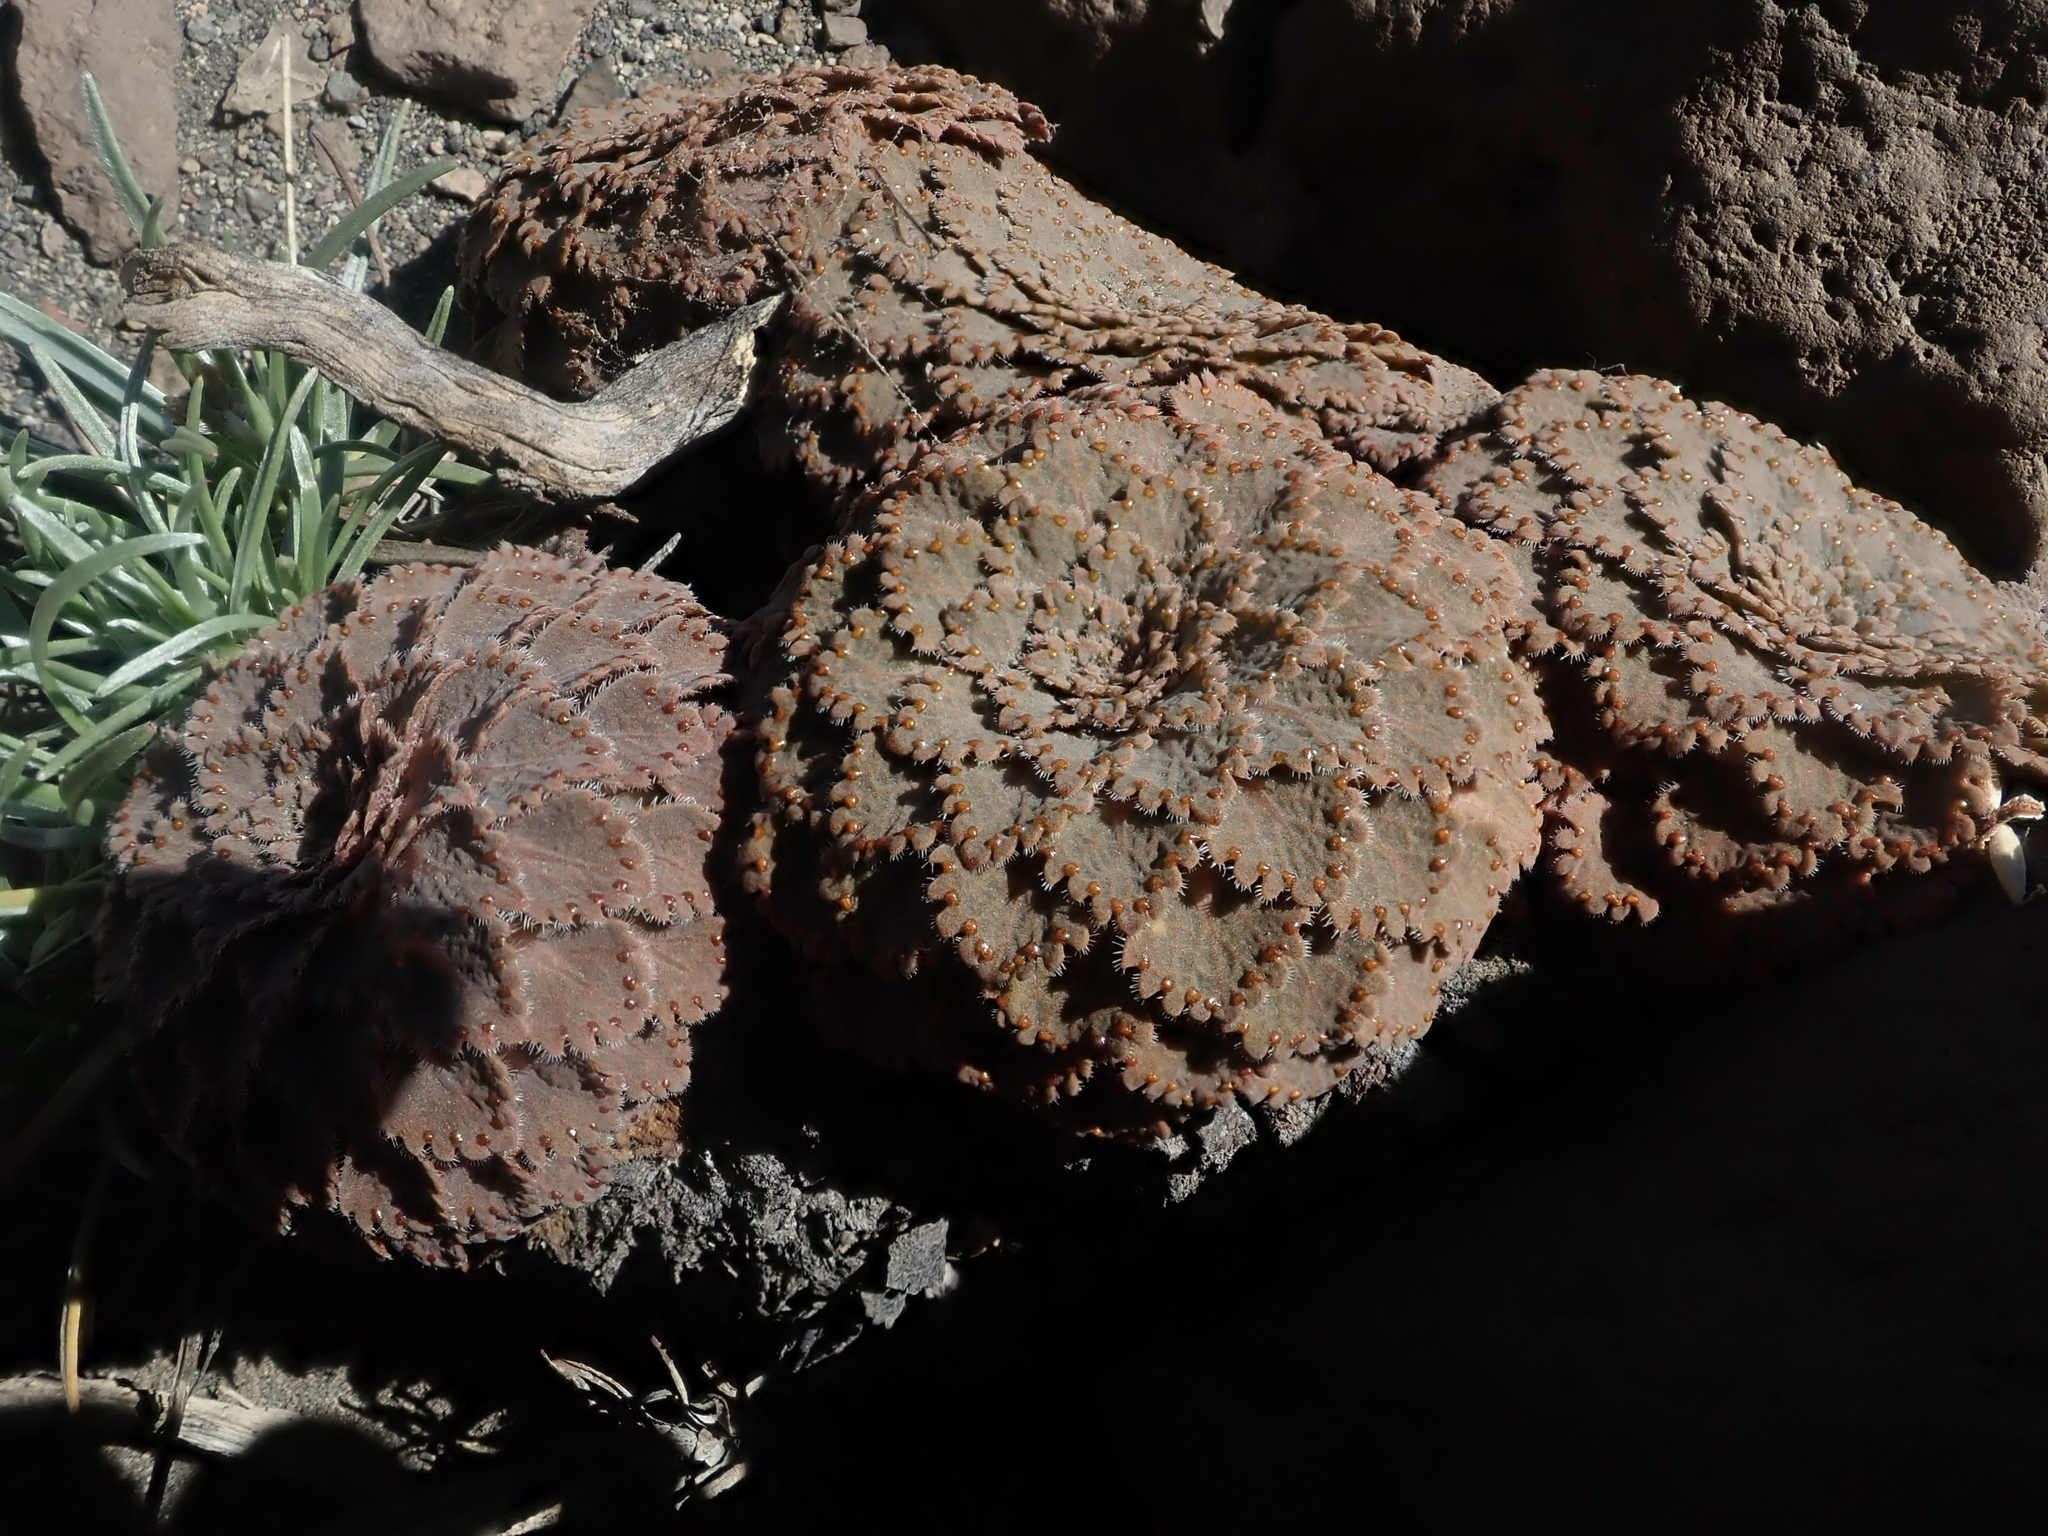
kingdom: Plantae
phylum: Tracheophyta
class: Magnoliopsida
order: Malpighiales
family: Violaceae
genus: Viola
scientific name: Viola congesta
